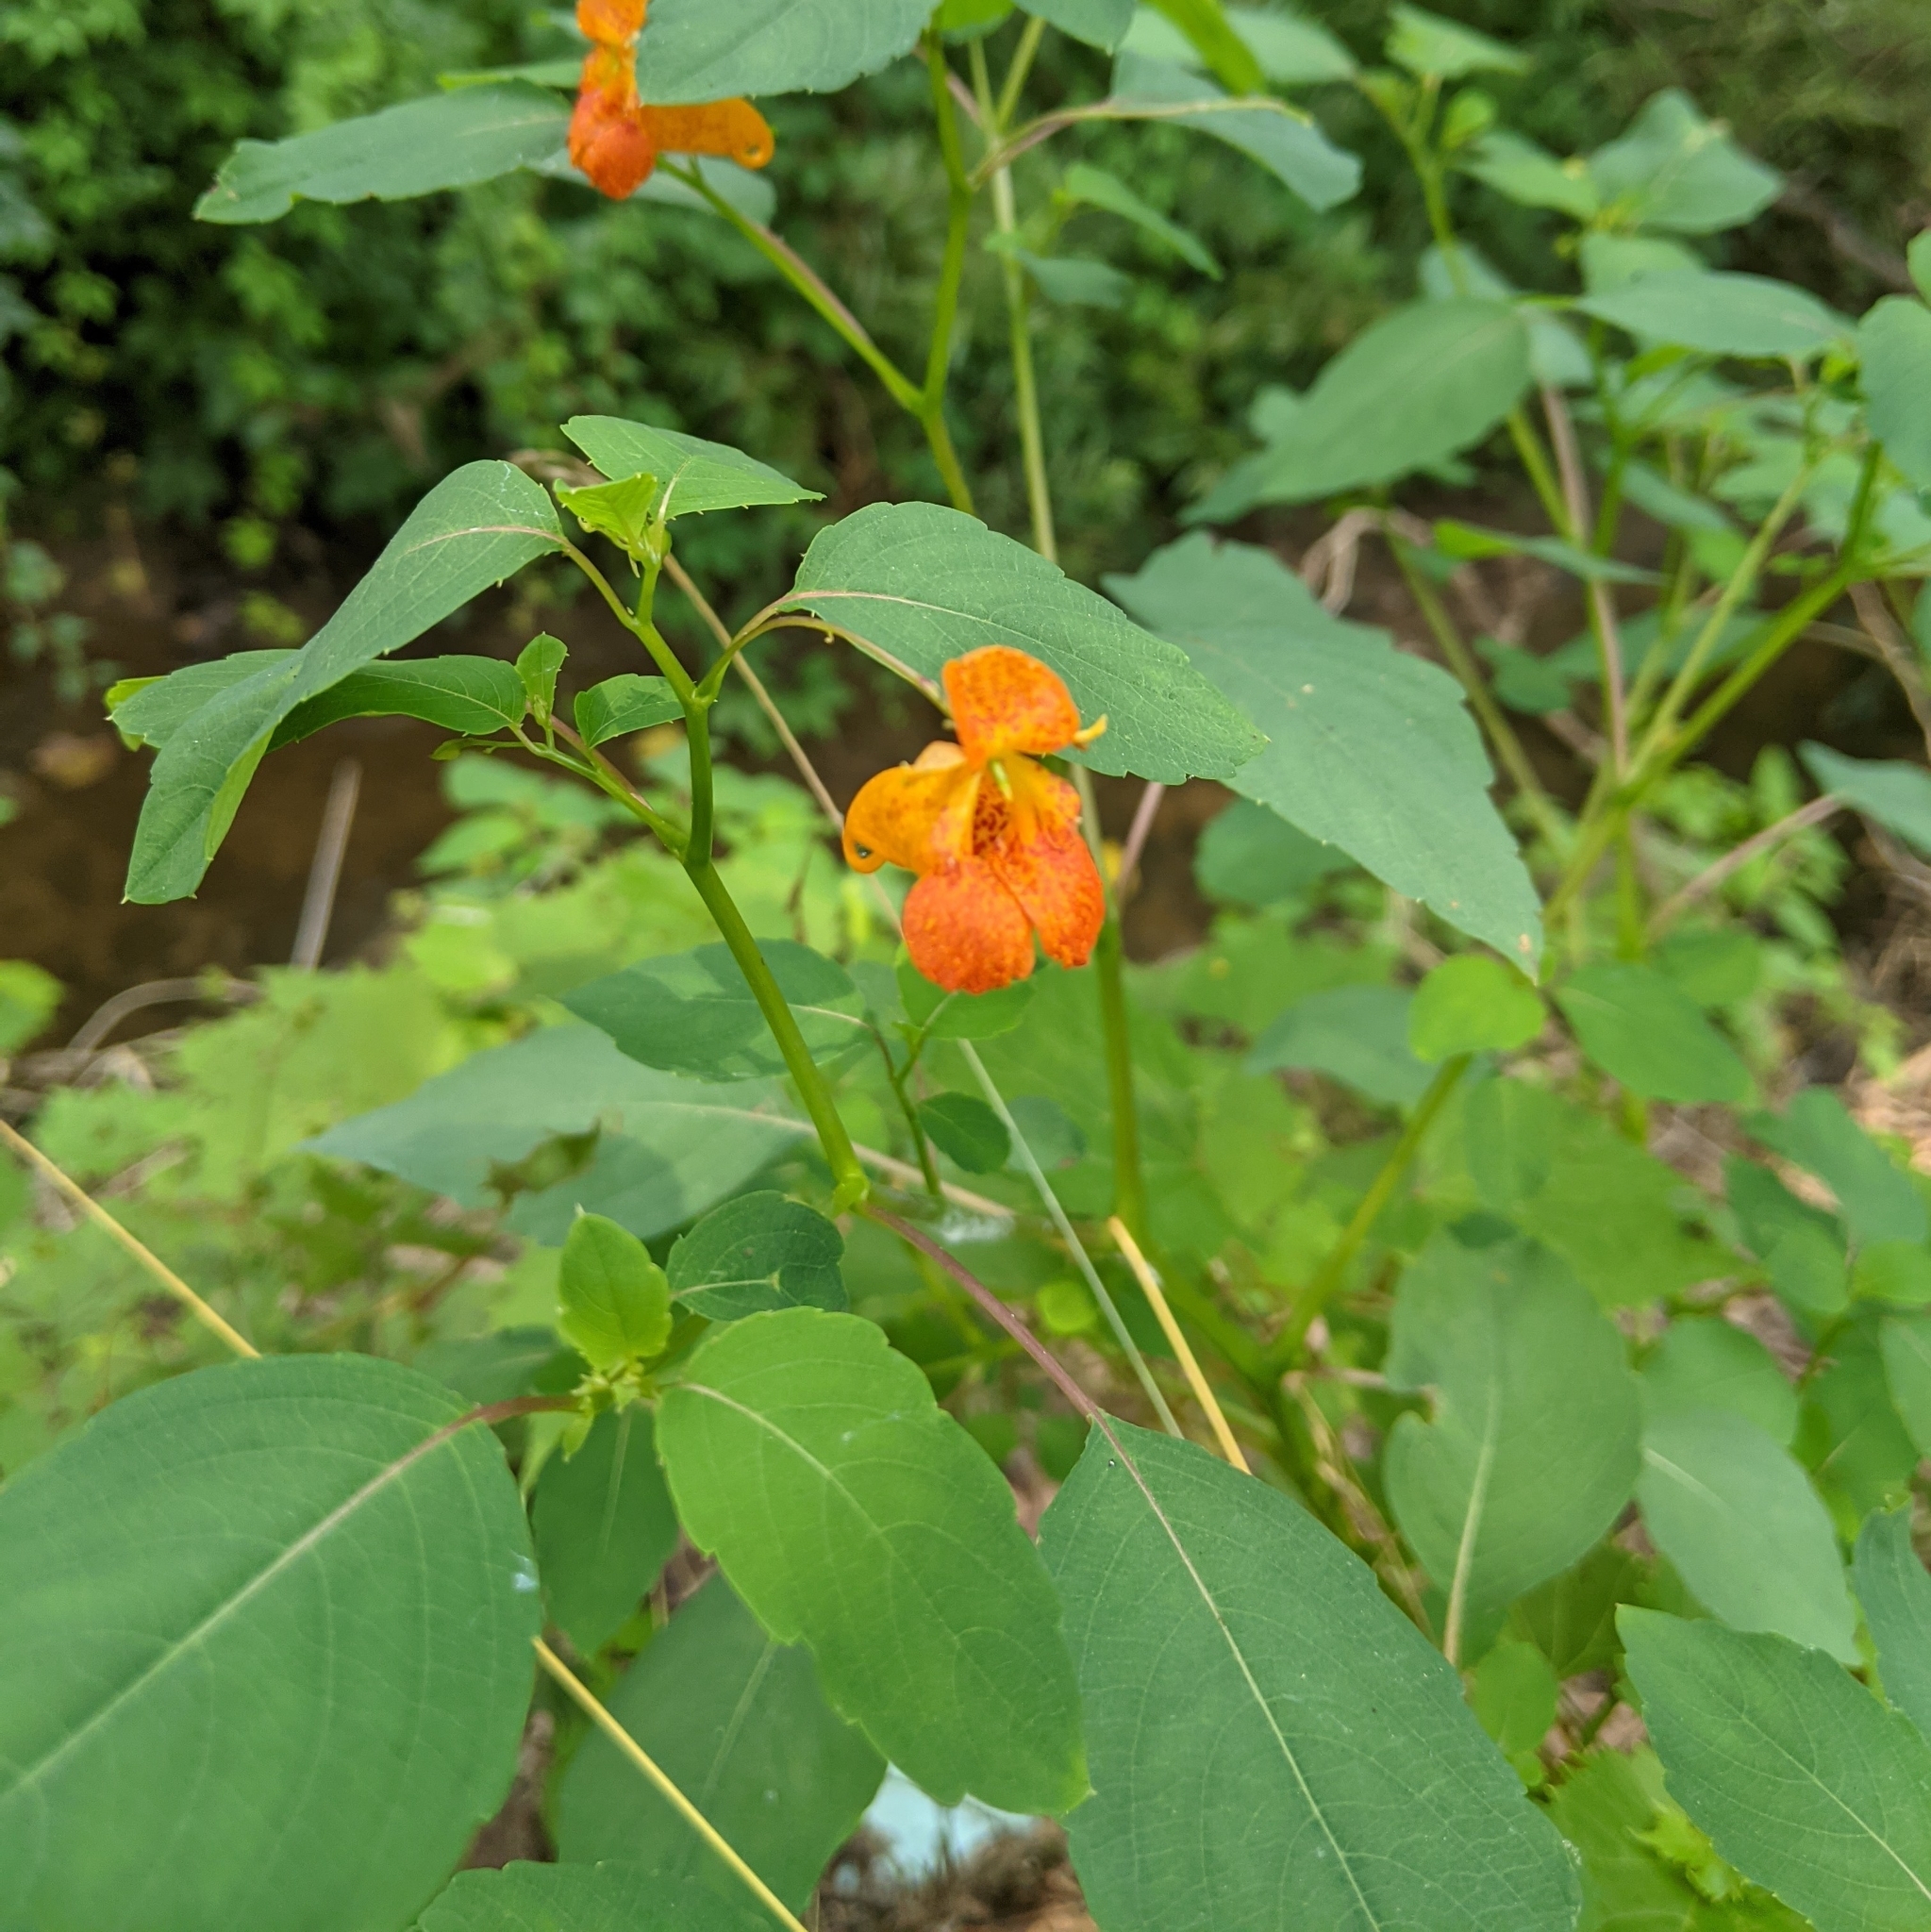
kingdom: Plantae
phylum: Tracheophyta
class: Magnoliopsida
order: Ericales
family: Balsaminaceae
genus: Impatiens
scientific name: Impatiens capensis
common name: Orange balsam
